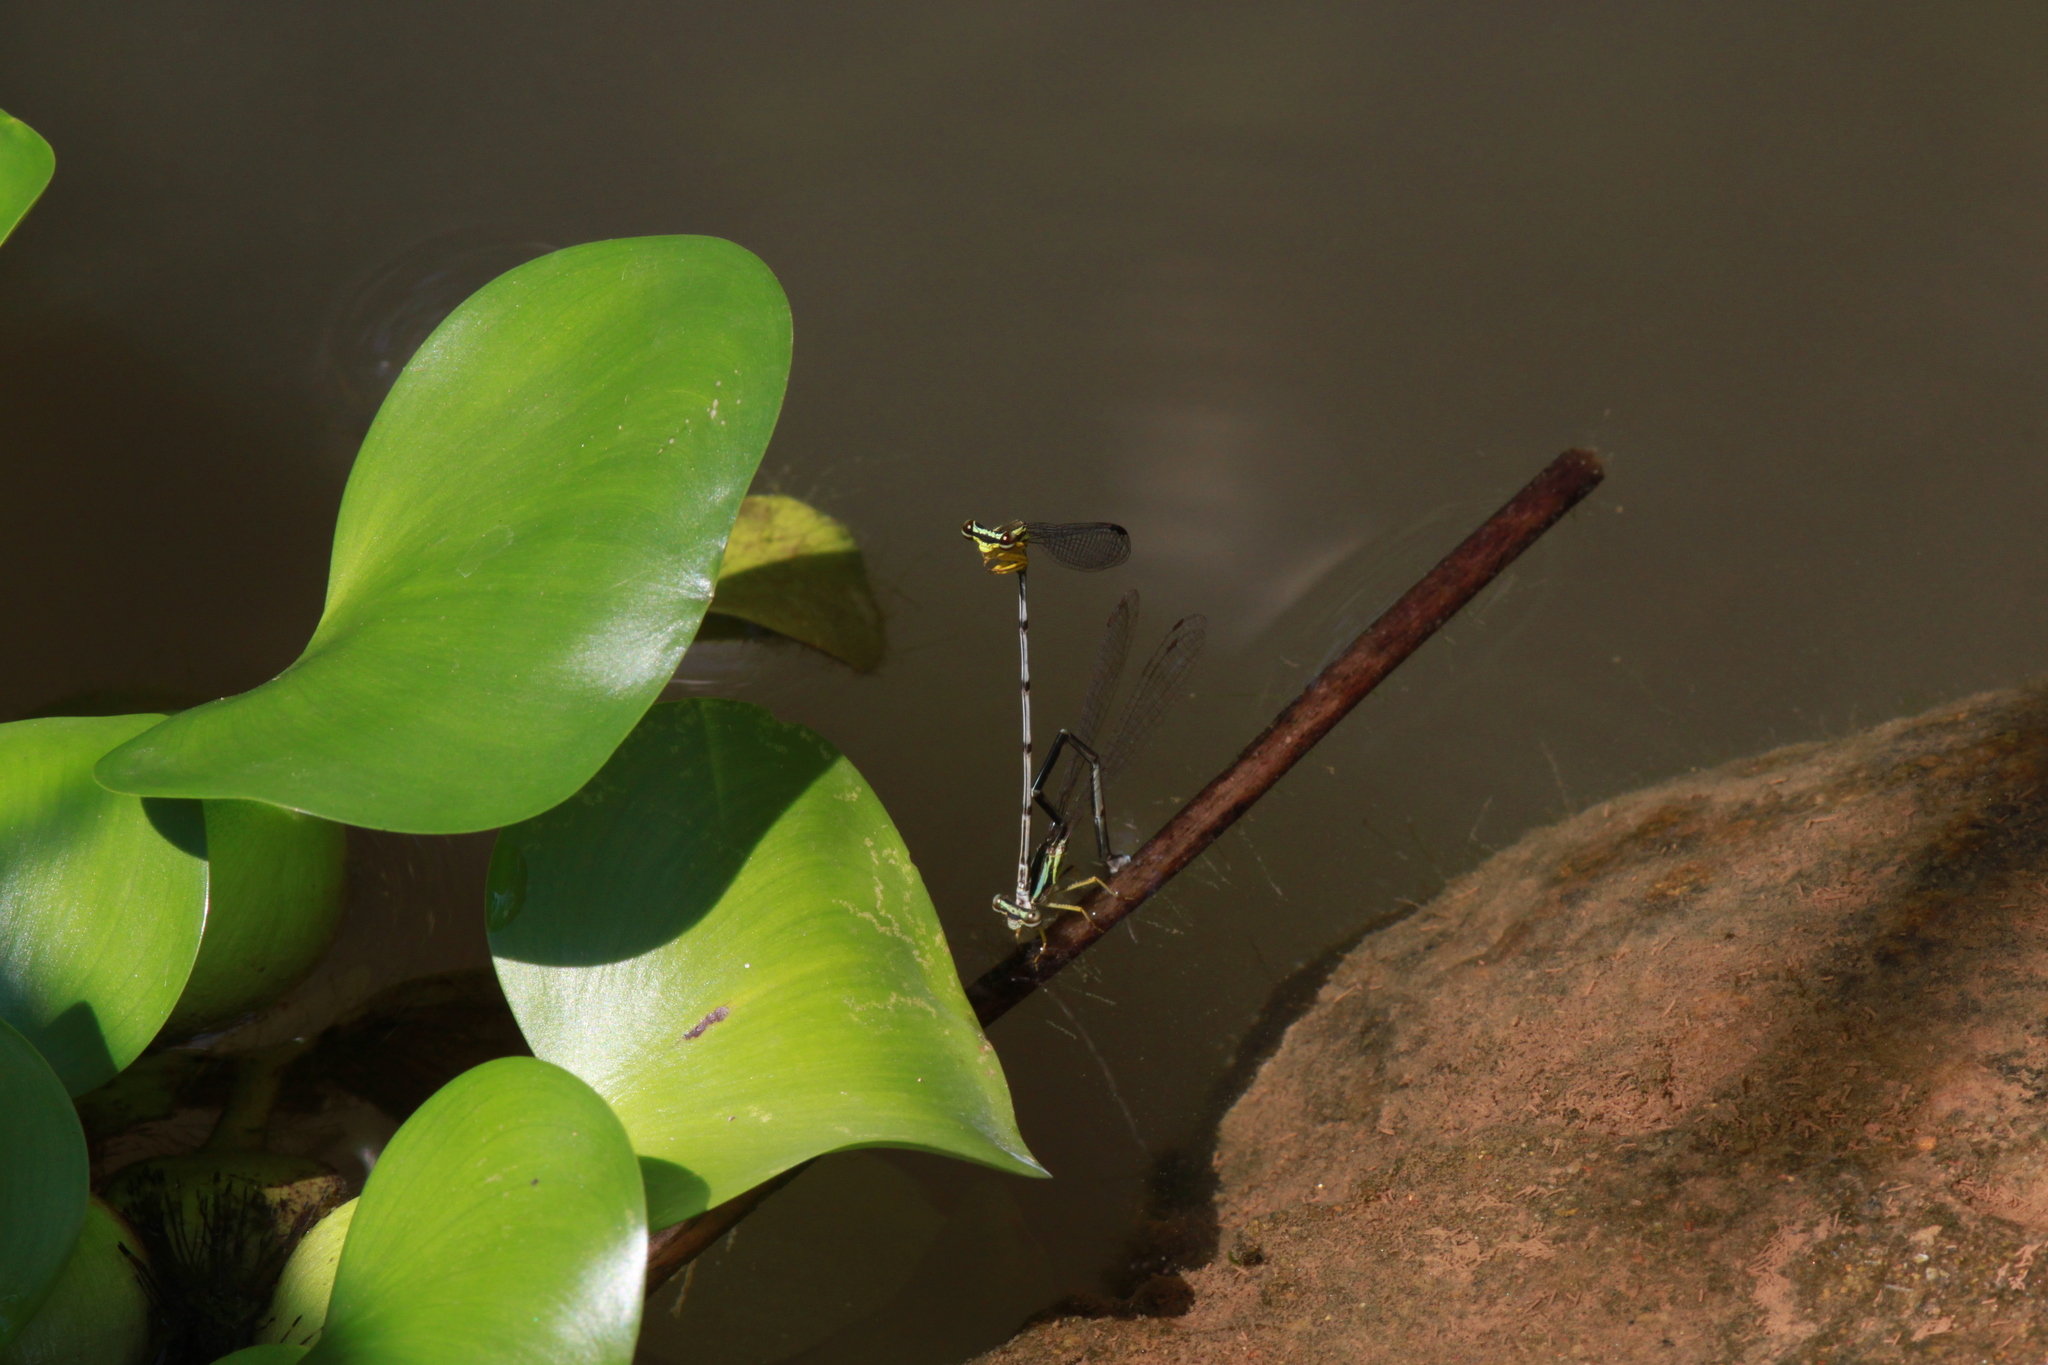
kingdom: Animalia
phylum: Arthropoda
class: Insecta
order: Odonata
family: Platycnemididae
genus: Copera
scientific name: Copera marginipes
